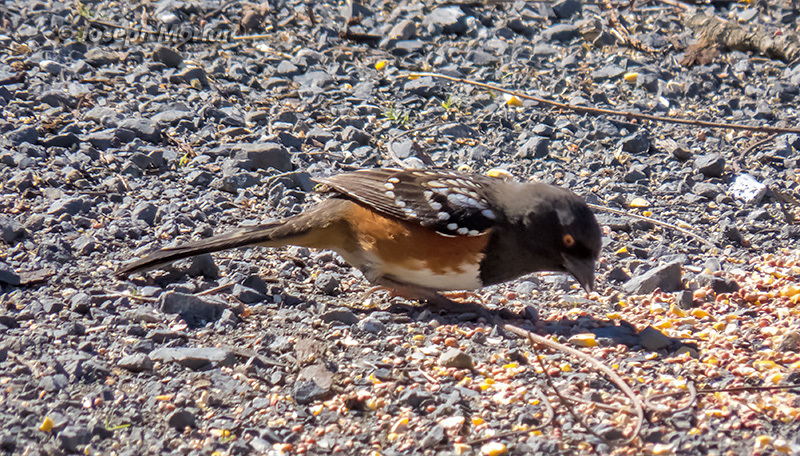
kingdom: Animalia
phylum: Chordata
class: Aves
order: Passeriformes
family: Passerellidae
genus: Pipilo
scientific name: Pipilo maculatus
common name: Spotted towhee
